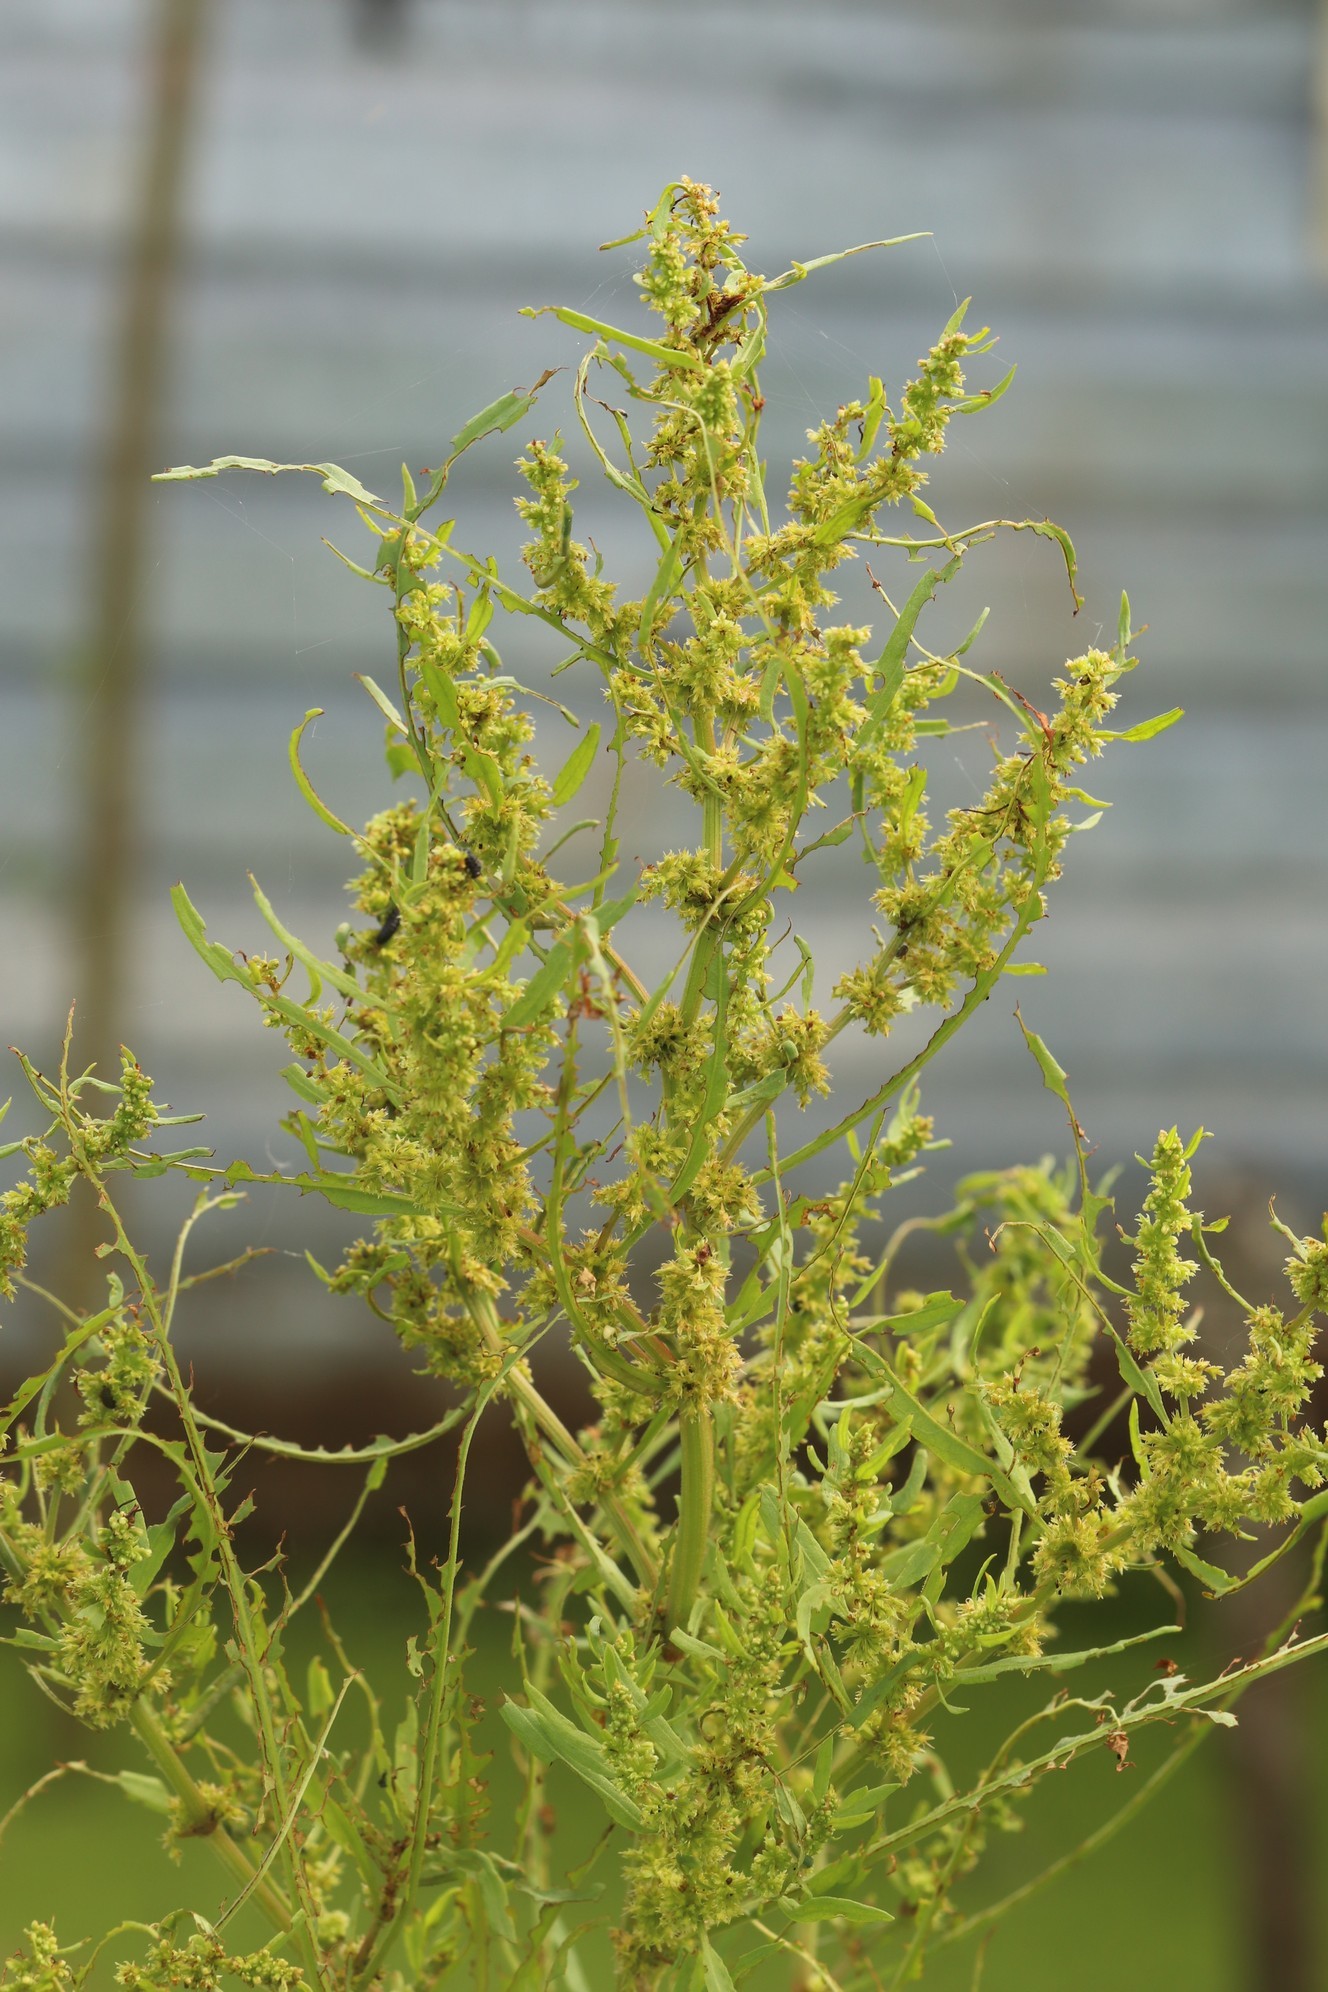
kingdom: Plantae
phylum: Tracheophyta
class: Magnoliopsida
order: Caryophyllales
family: Polygonaceae
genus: Rumex
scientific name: Rumex maritimus
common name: Golden dock
